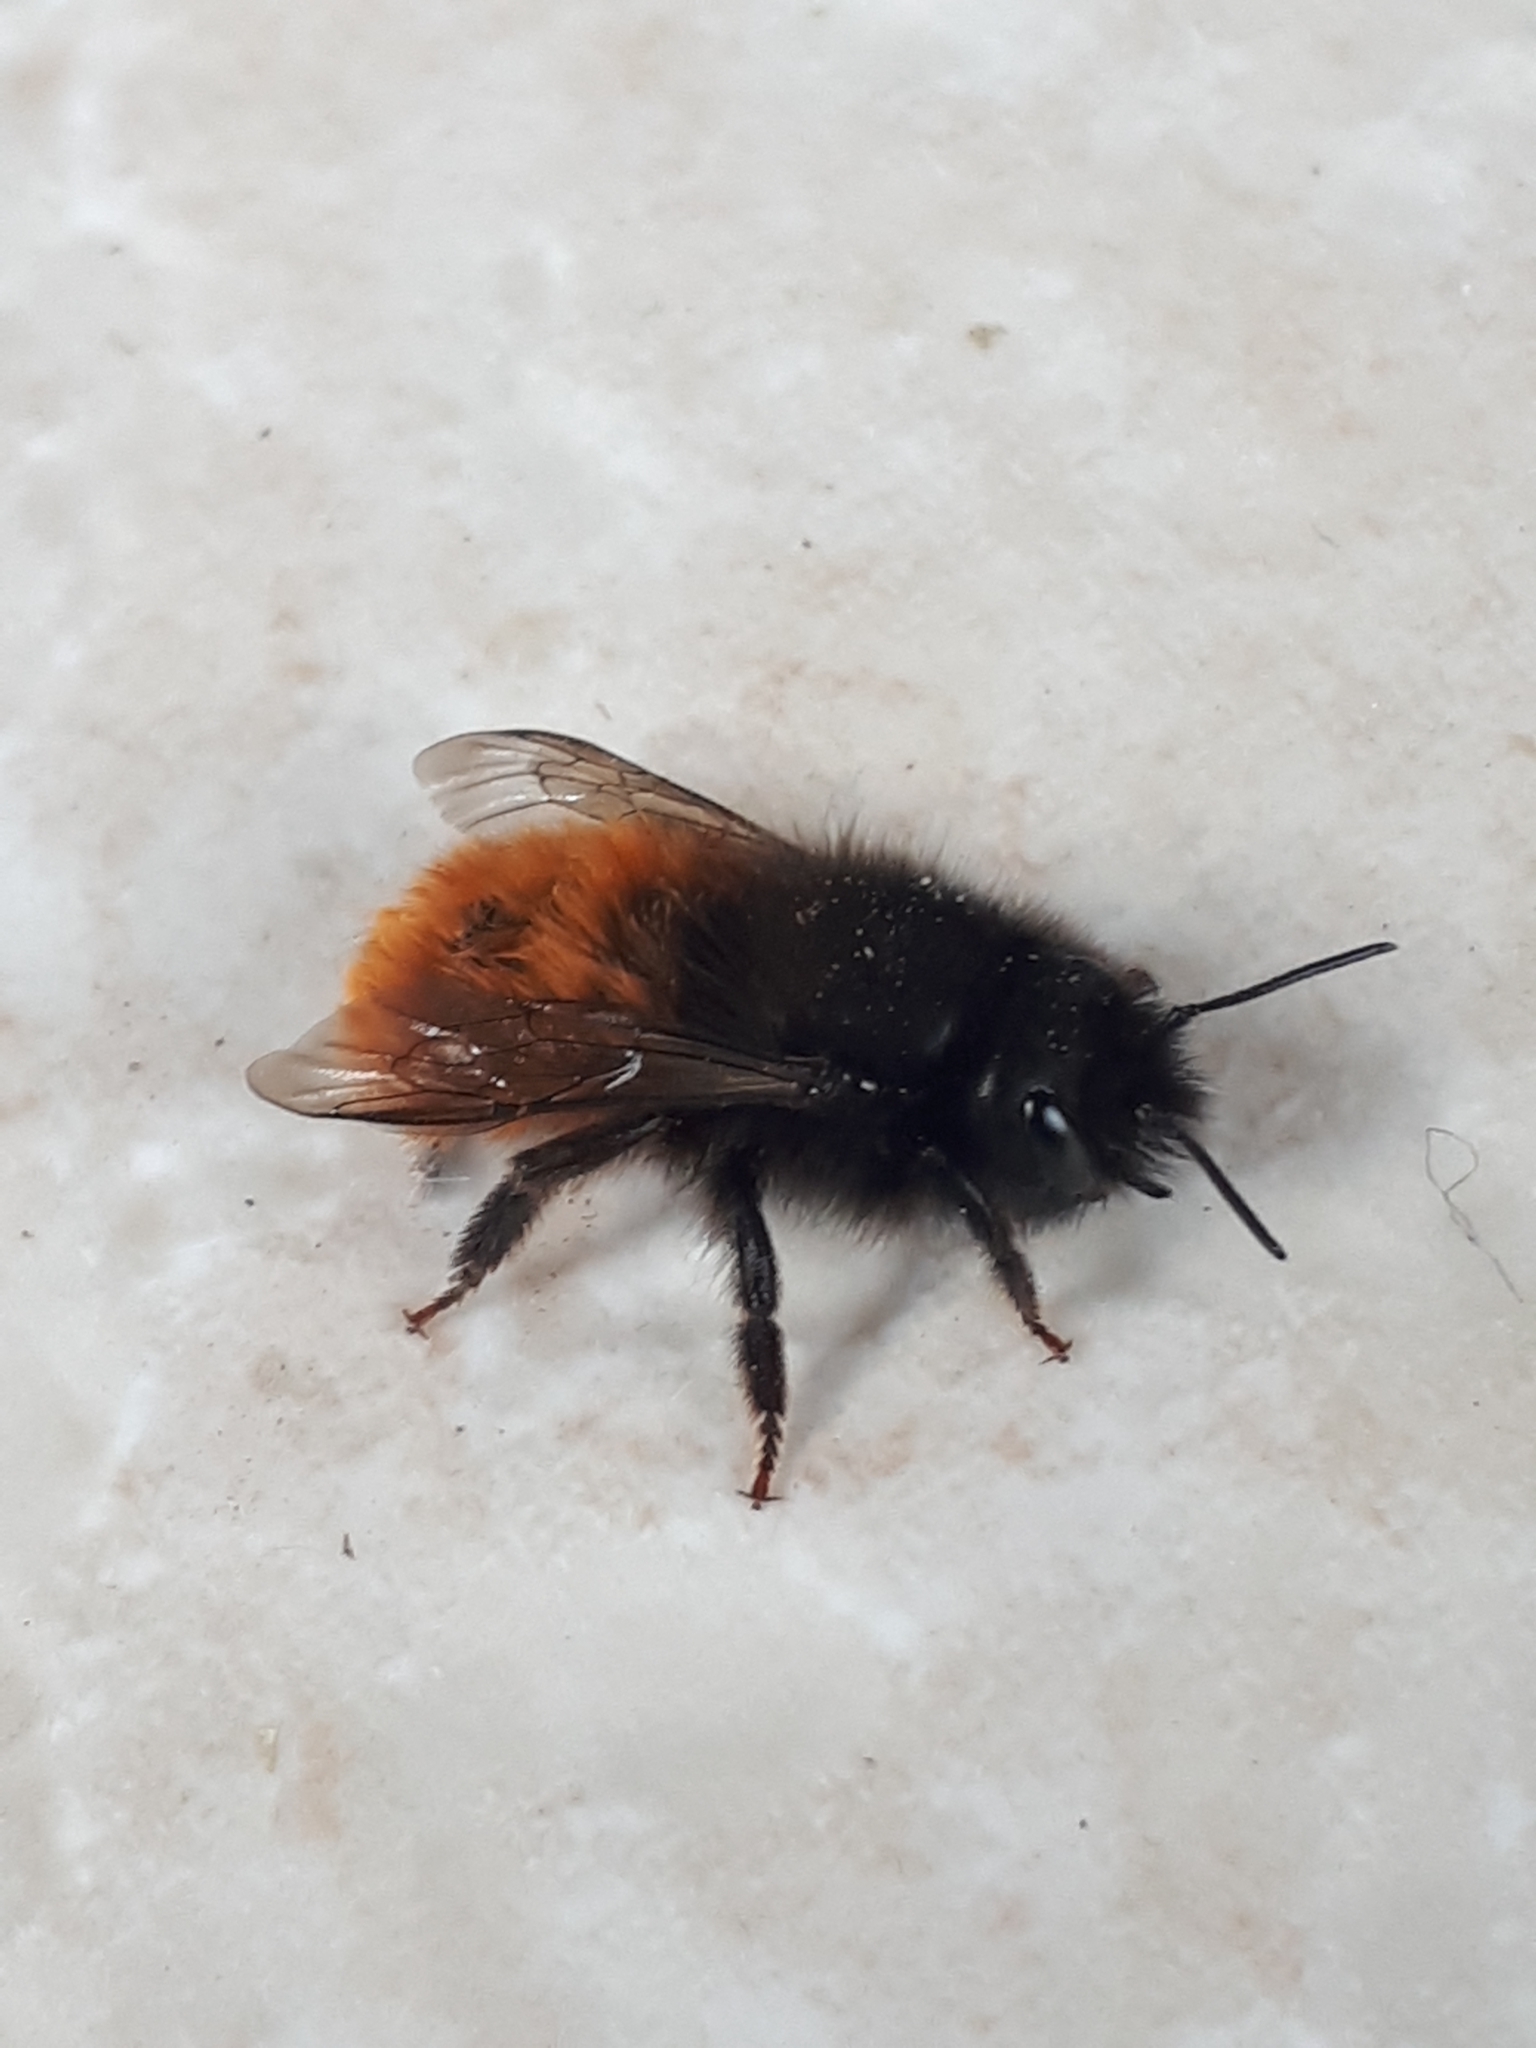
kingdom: Animalia
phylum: Arthropoda
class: Insecta
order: Hymenoptera
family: Megachilidae
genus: Osmia
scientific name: Osmia cornuta
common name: Mason bee
